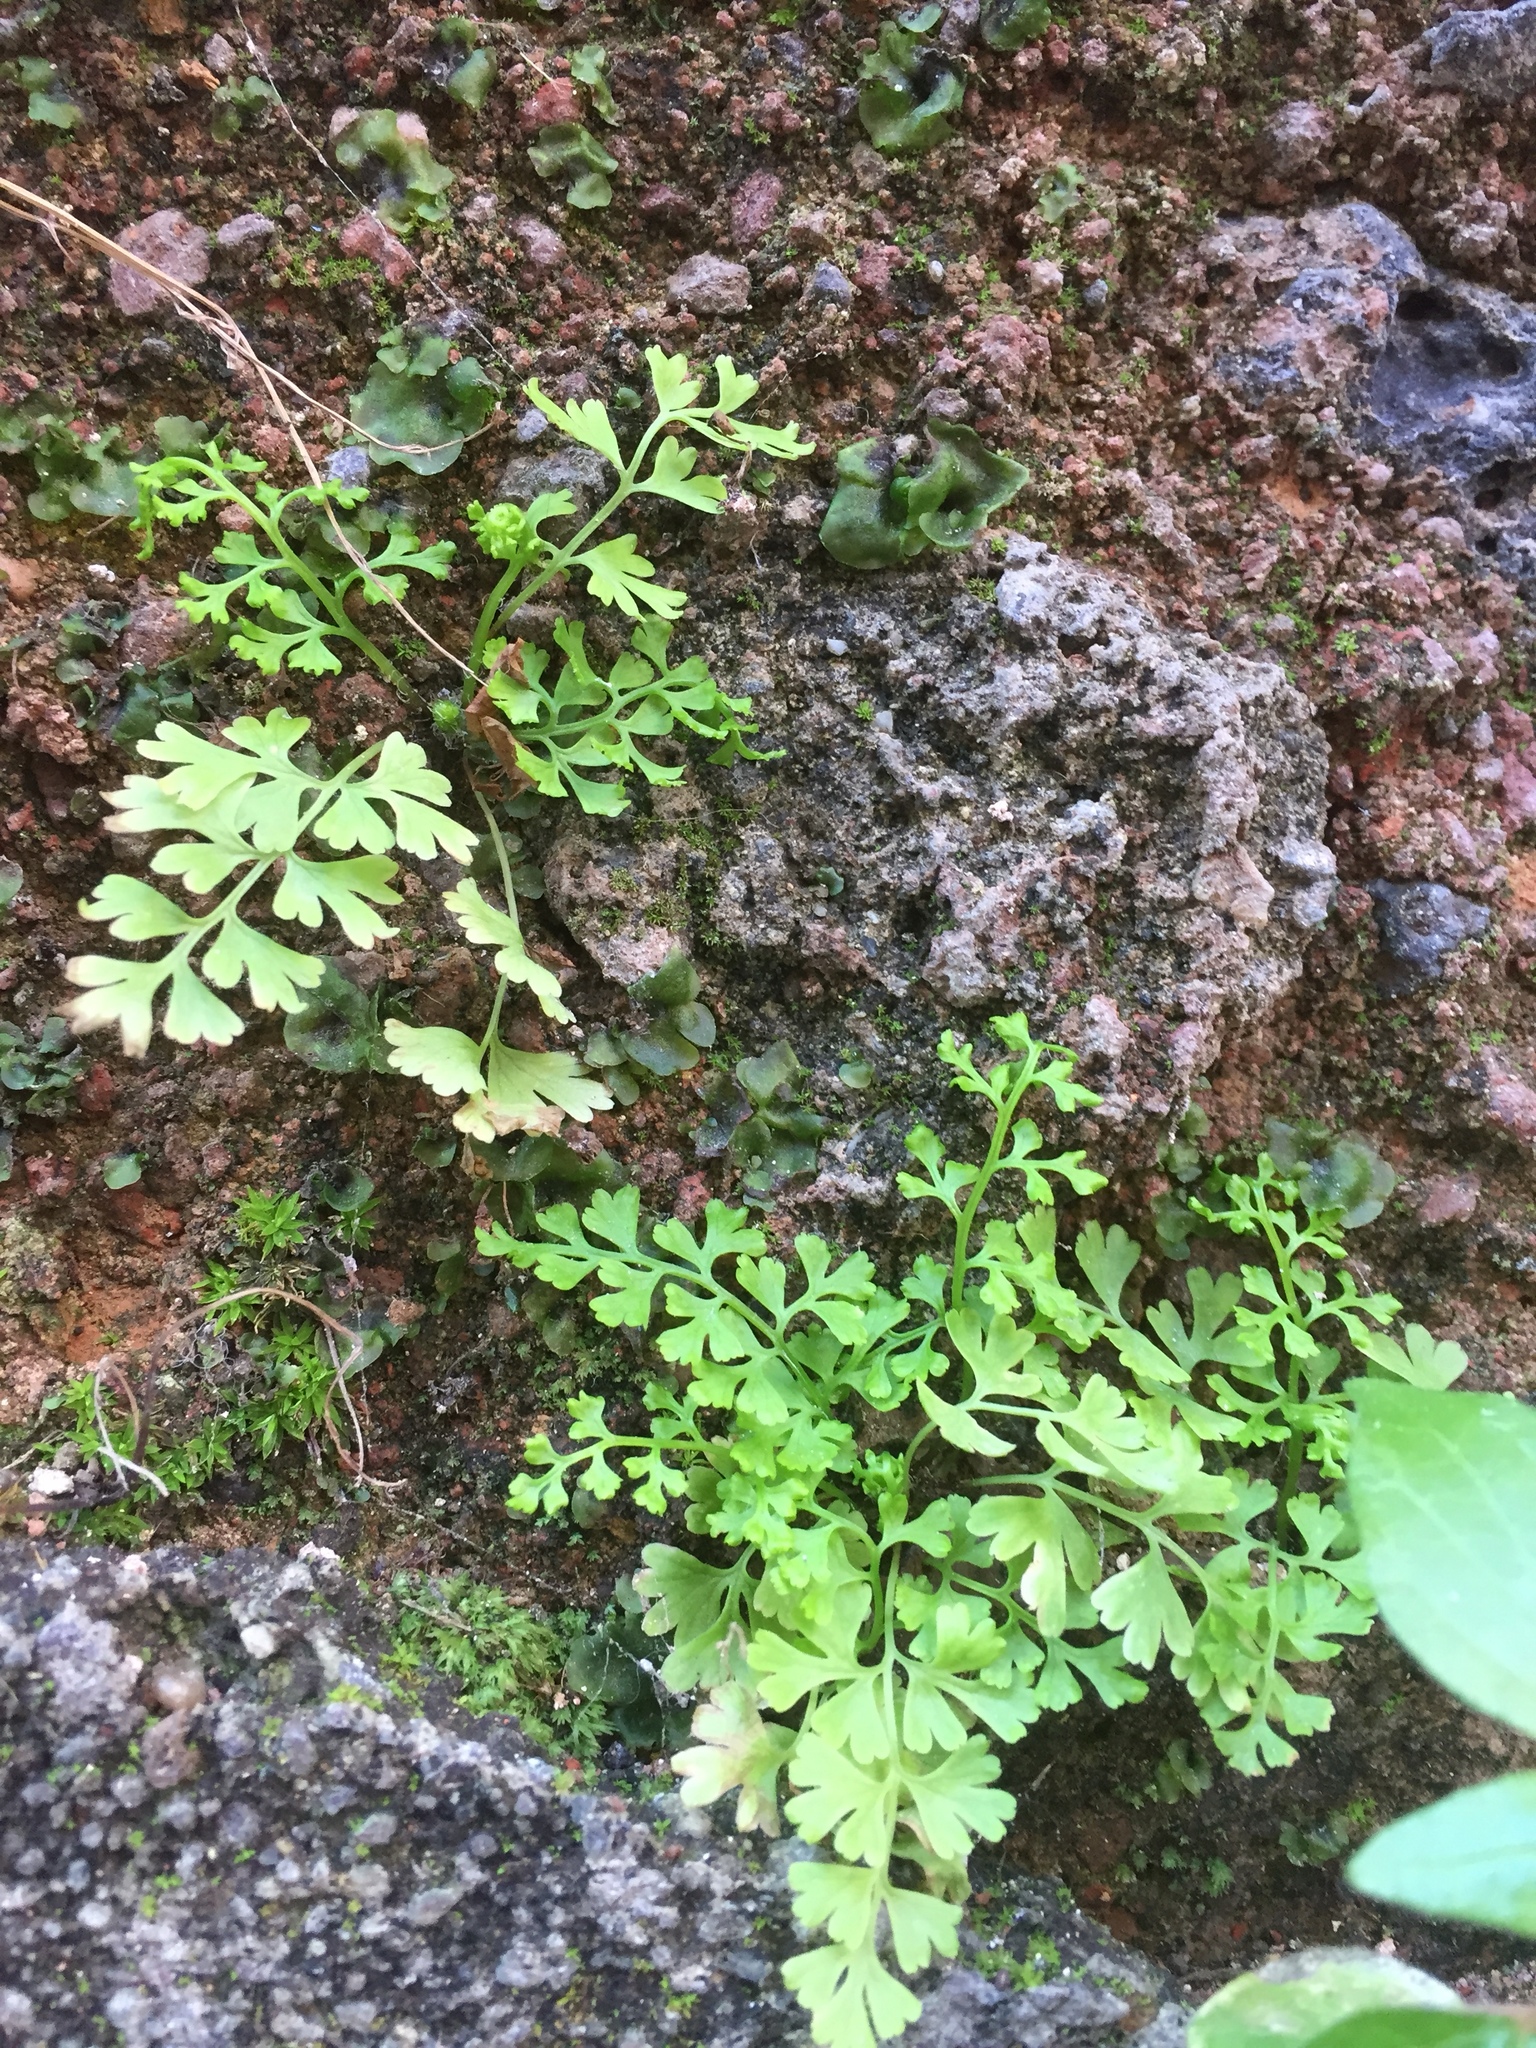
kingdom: Plantae
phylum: Tracheophyta
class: Polypodiopsida
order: Polypodiales
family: Pteridaceae
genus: Anogramma
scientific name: Anogramma leptophylla
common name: Jersey fern
